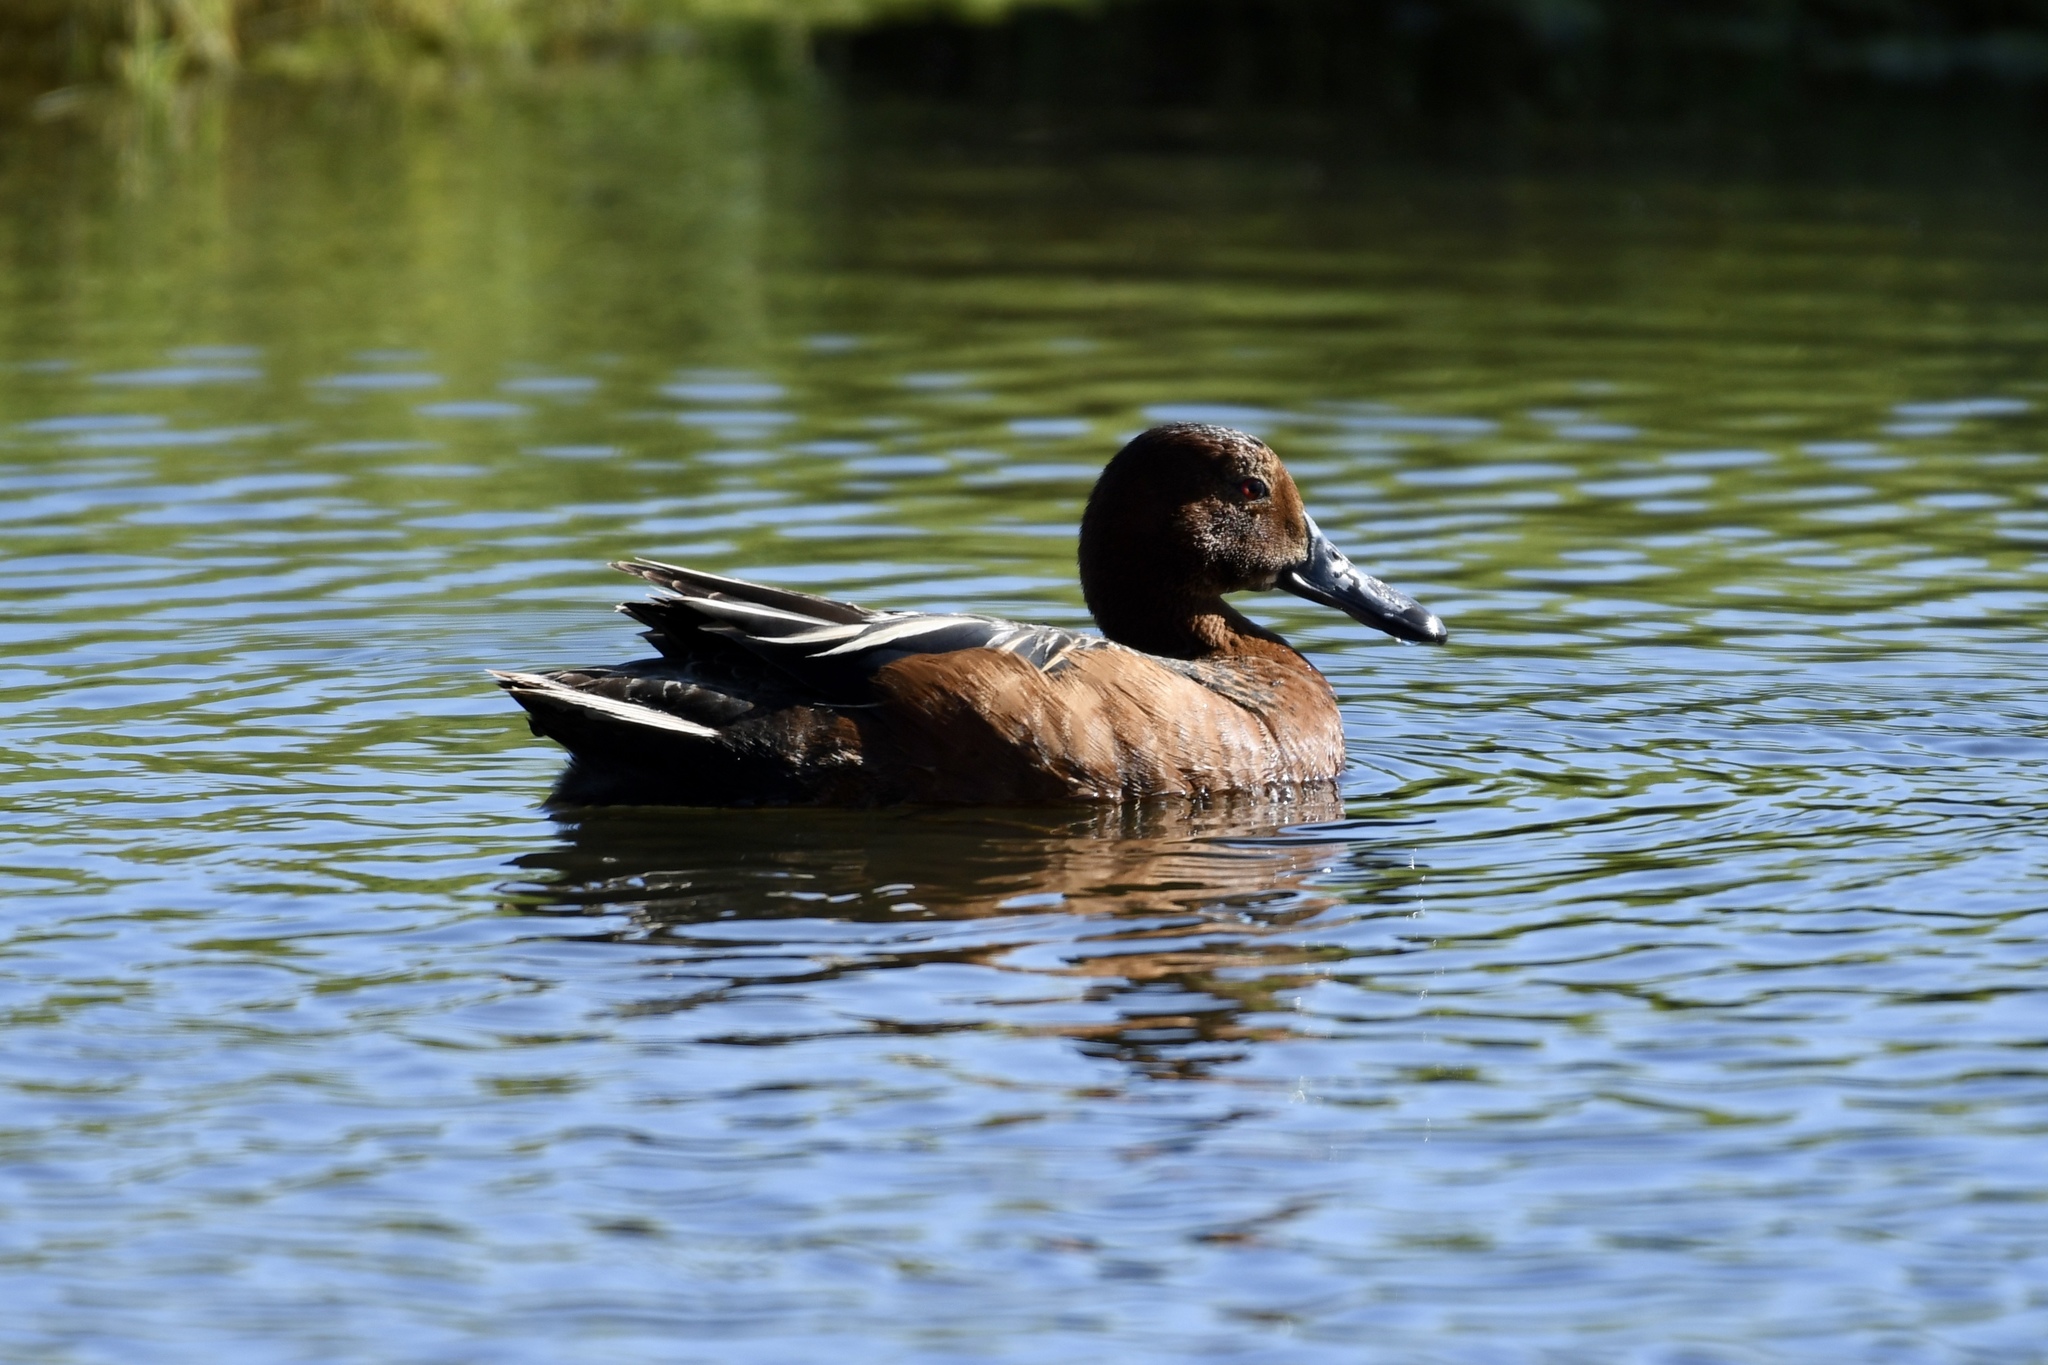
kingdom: Animalia
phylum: Chordata
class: Aves
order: Anseriformes
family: Anatidae
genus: Spatula
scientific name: Spatula cyanoptera
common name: Cinnamon teal
